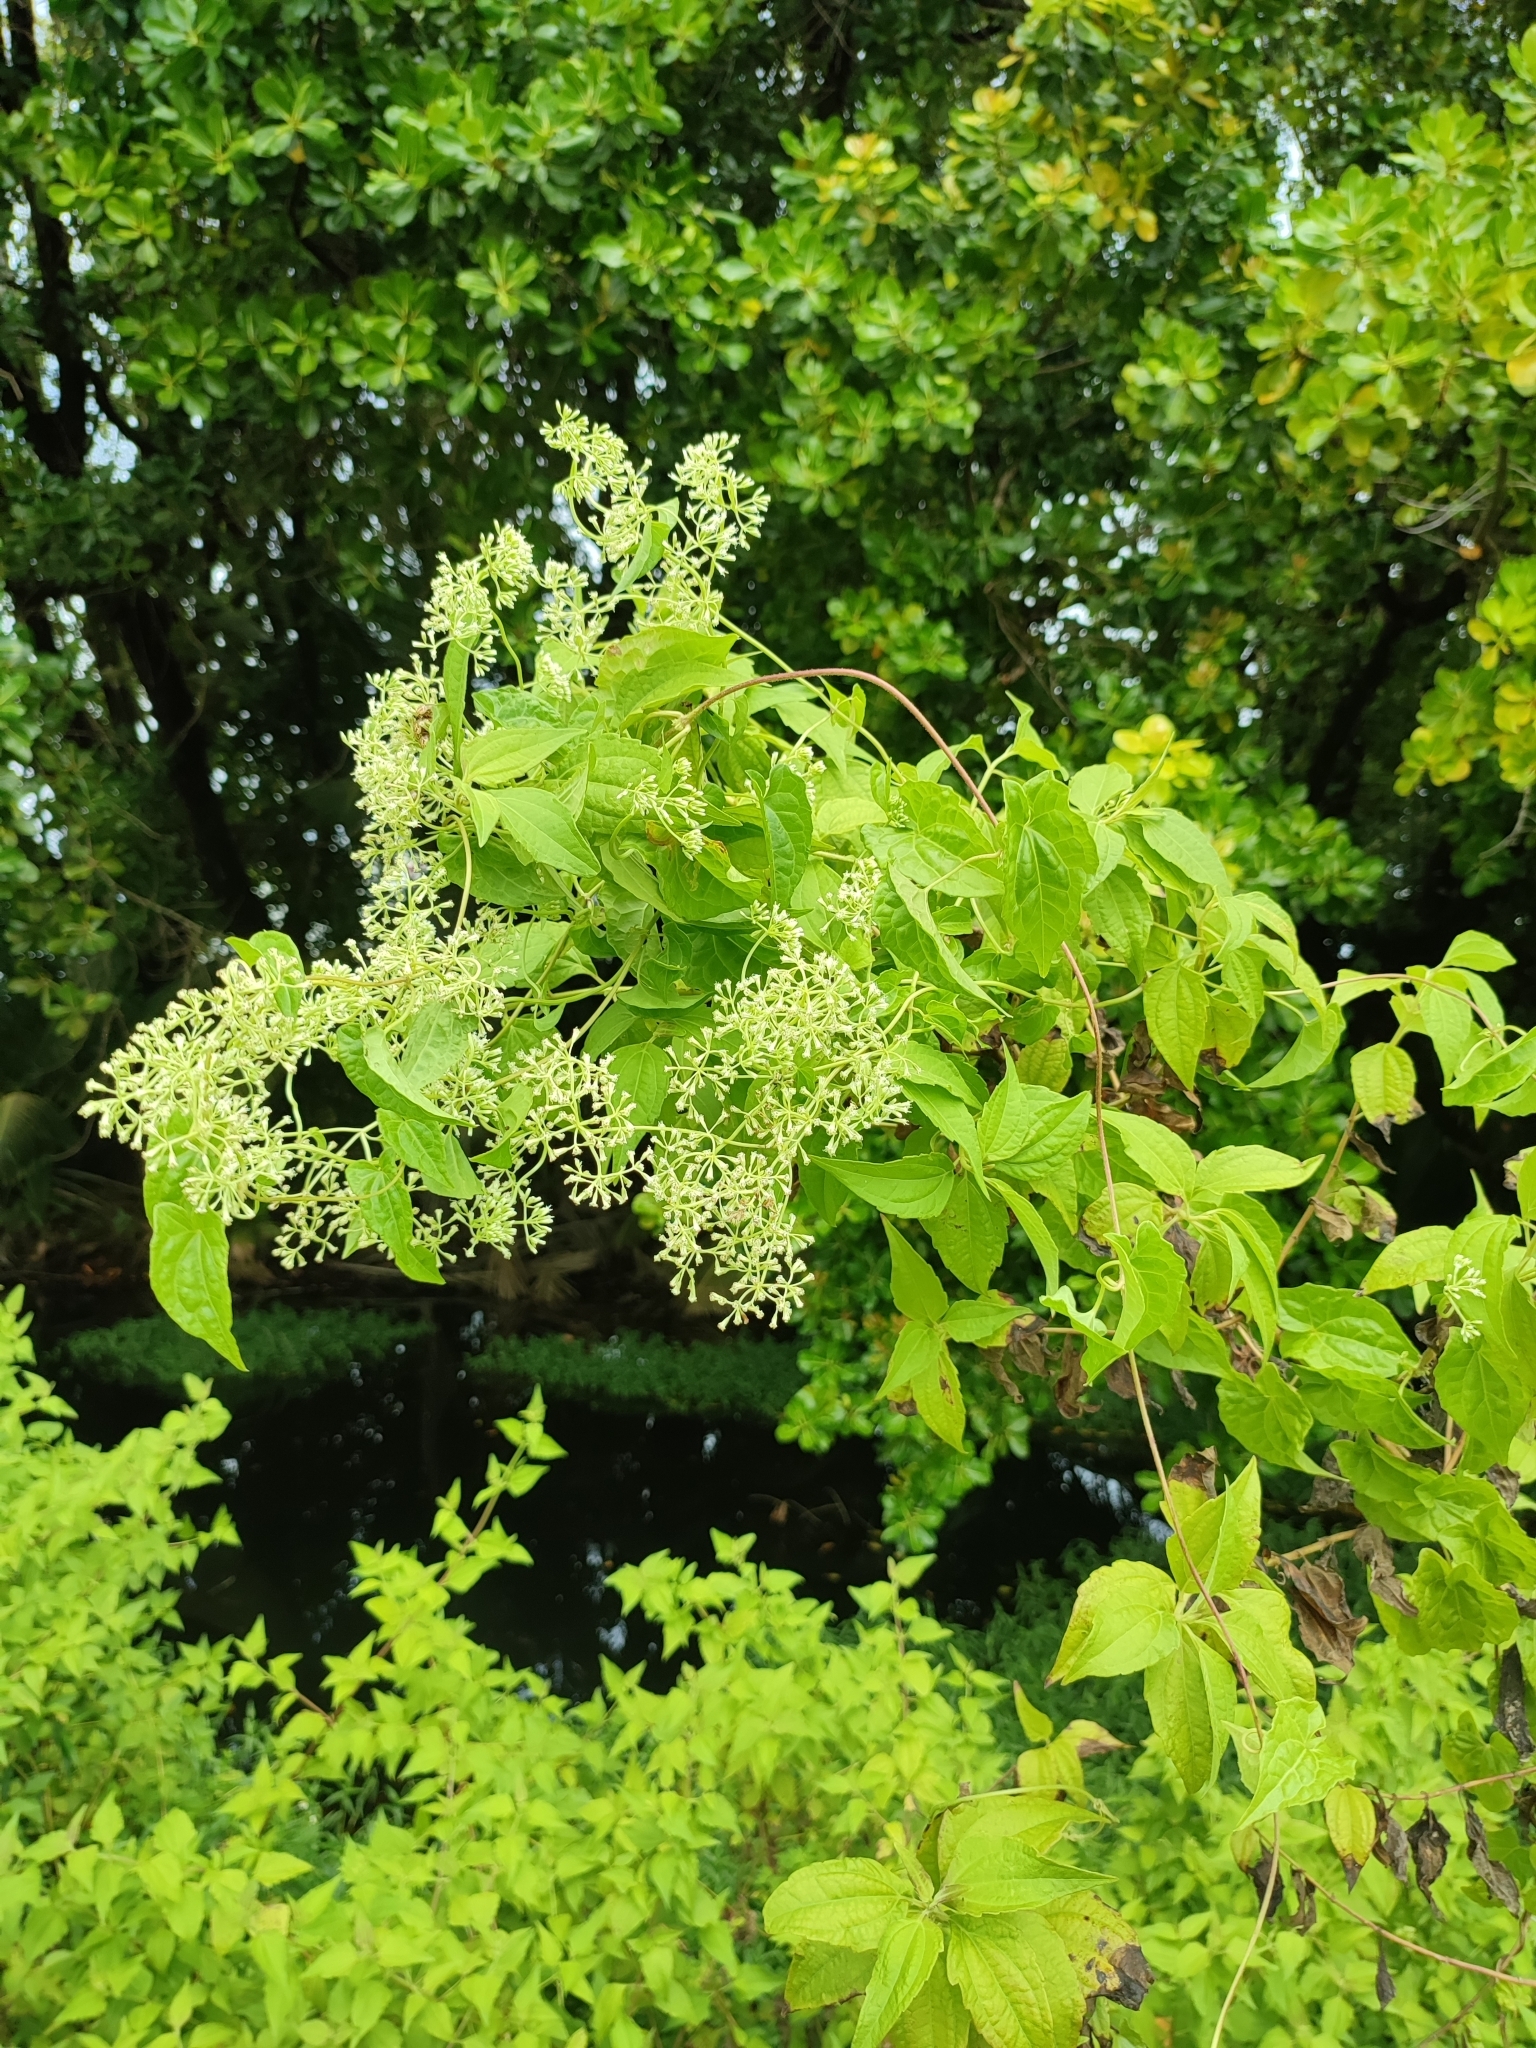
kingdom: Plantae
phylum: Tracheophyta
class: Magnoliopsida
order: Asterales
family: Asteraceae
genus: Mikania
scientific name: Mikania micrantha
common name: Mile-a-minute
